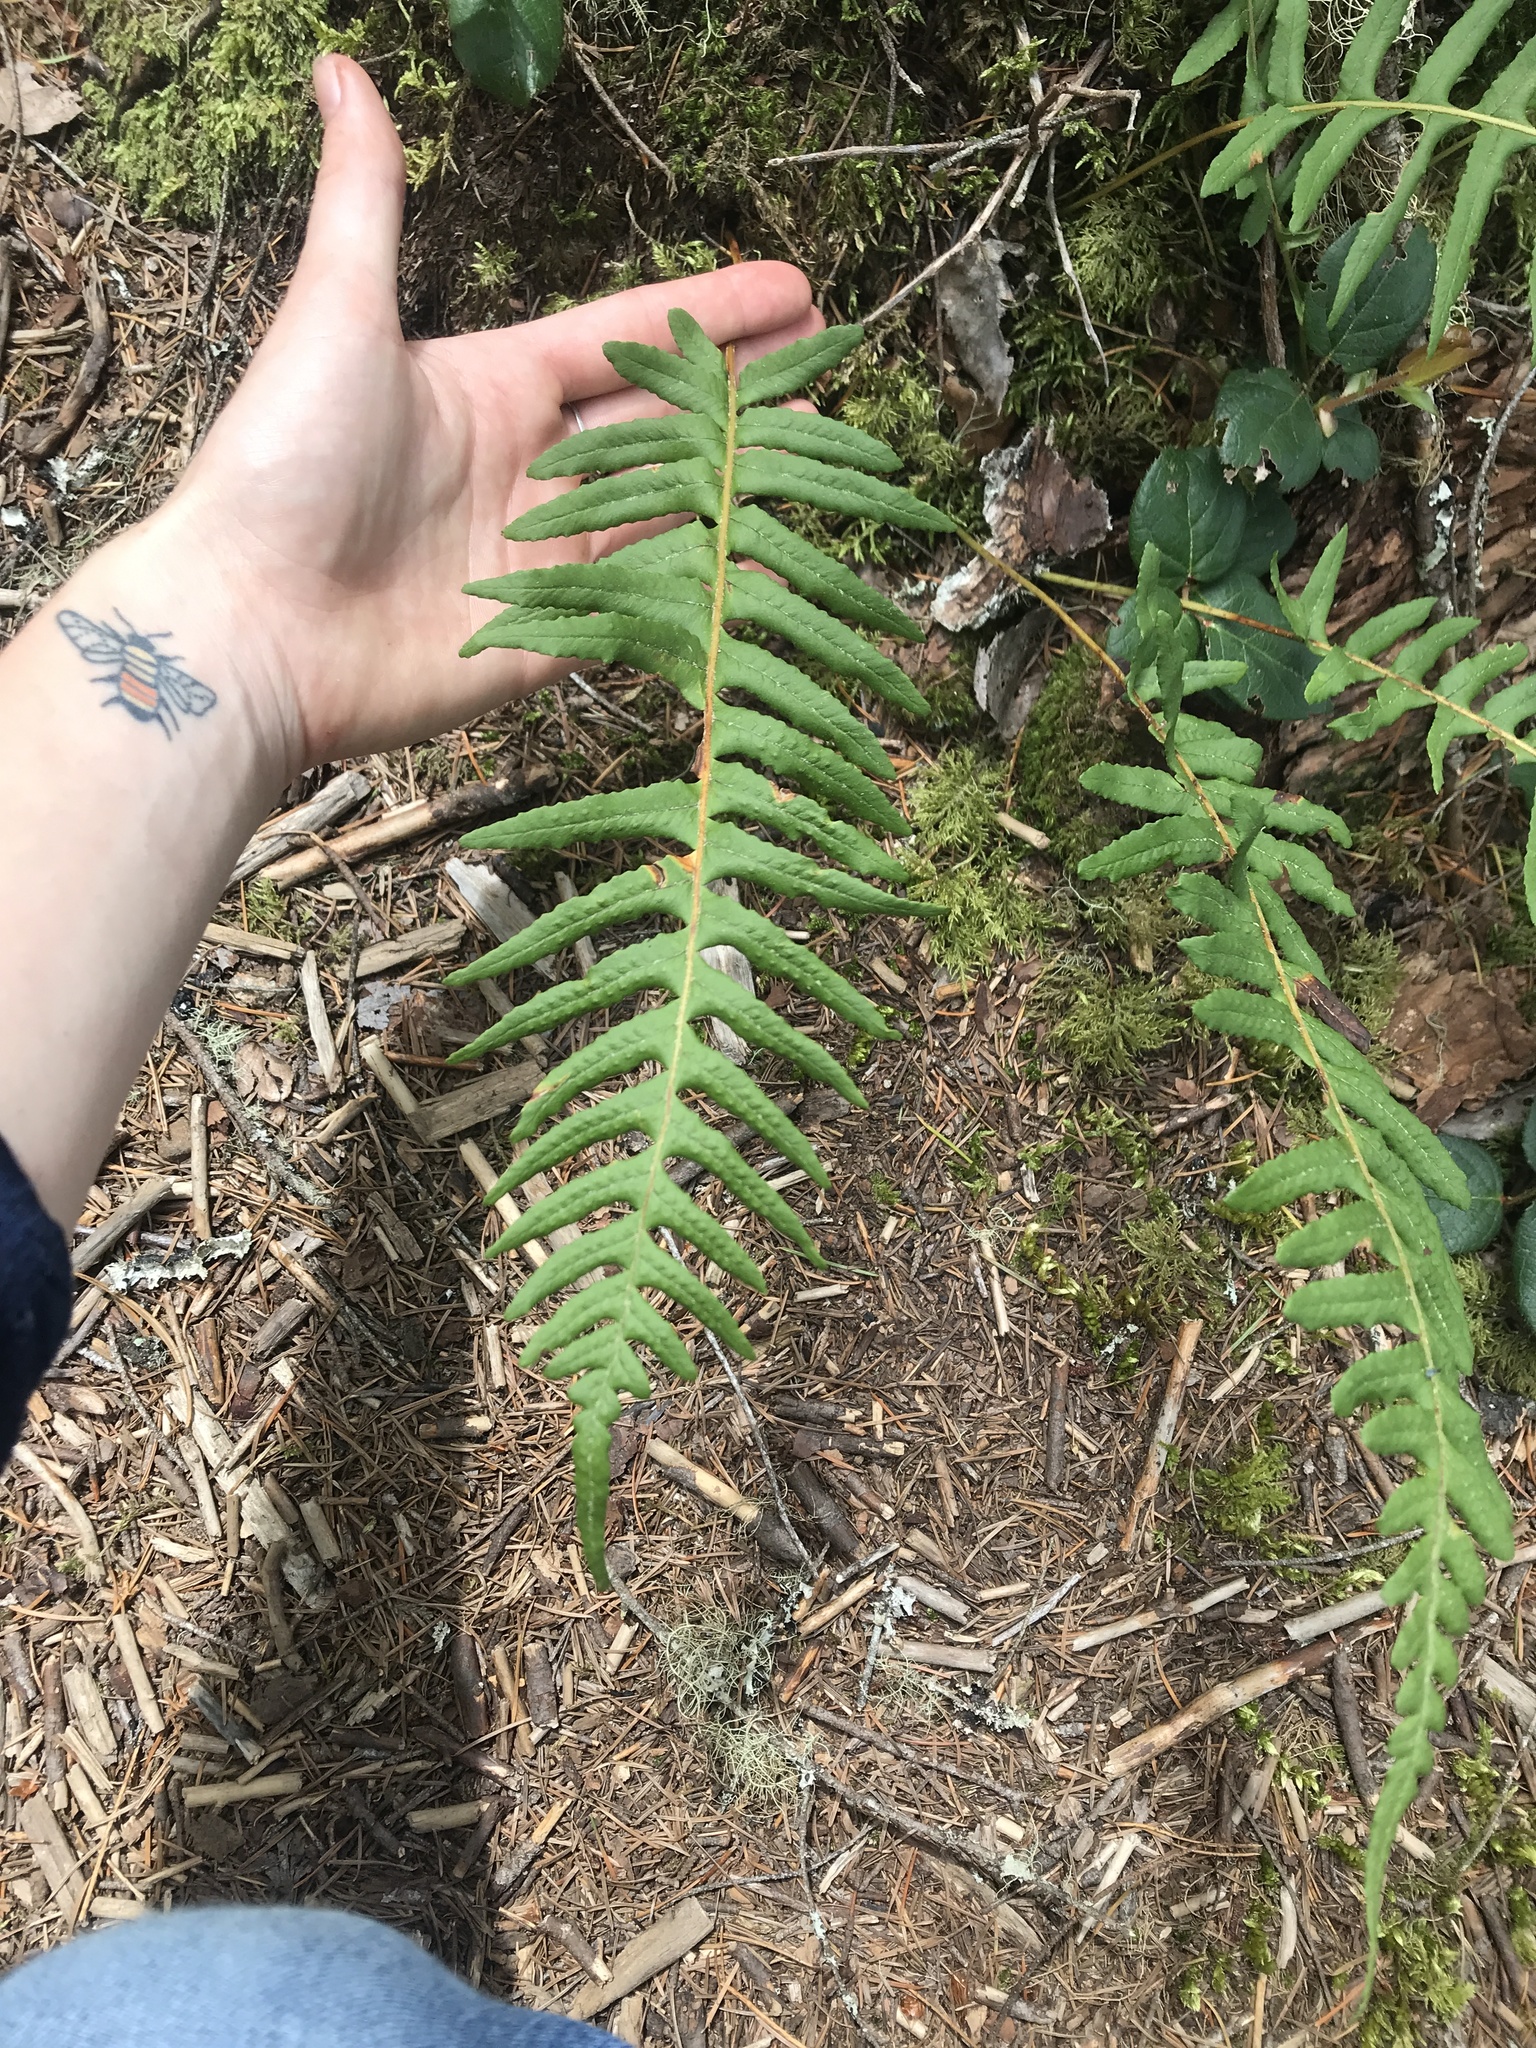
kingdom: Plantae
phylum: Tracheophyta
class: Polypodiopsida
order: Polypodiales
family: Polypodiaceae
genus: Polypodium
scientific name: Polypodium glycyrrhiza
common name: Licorice fern
